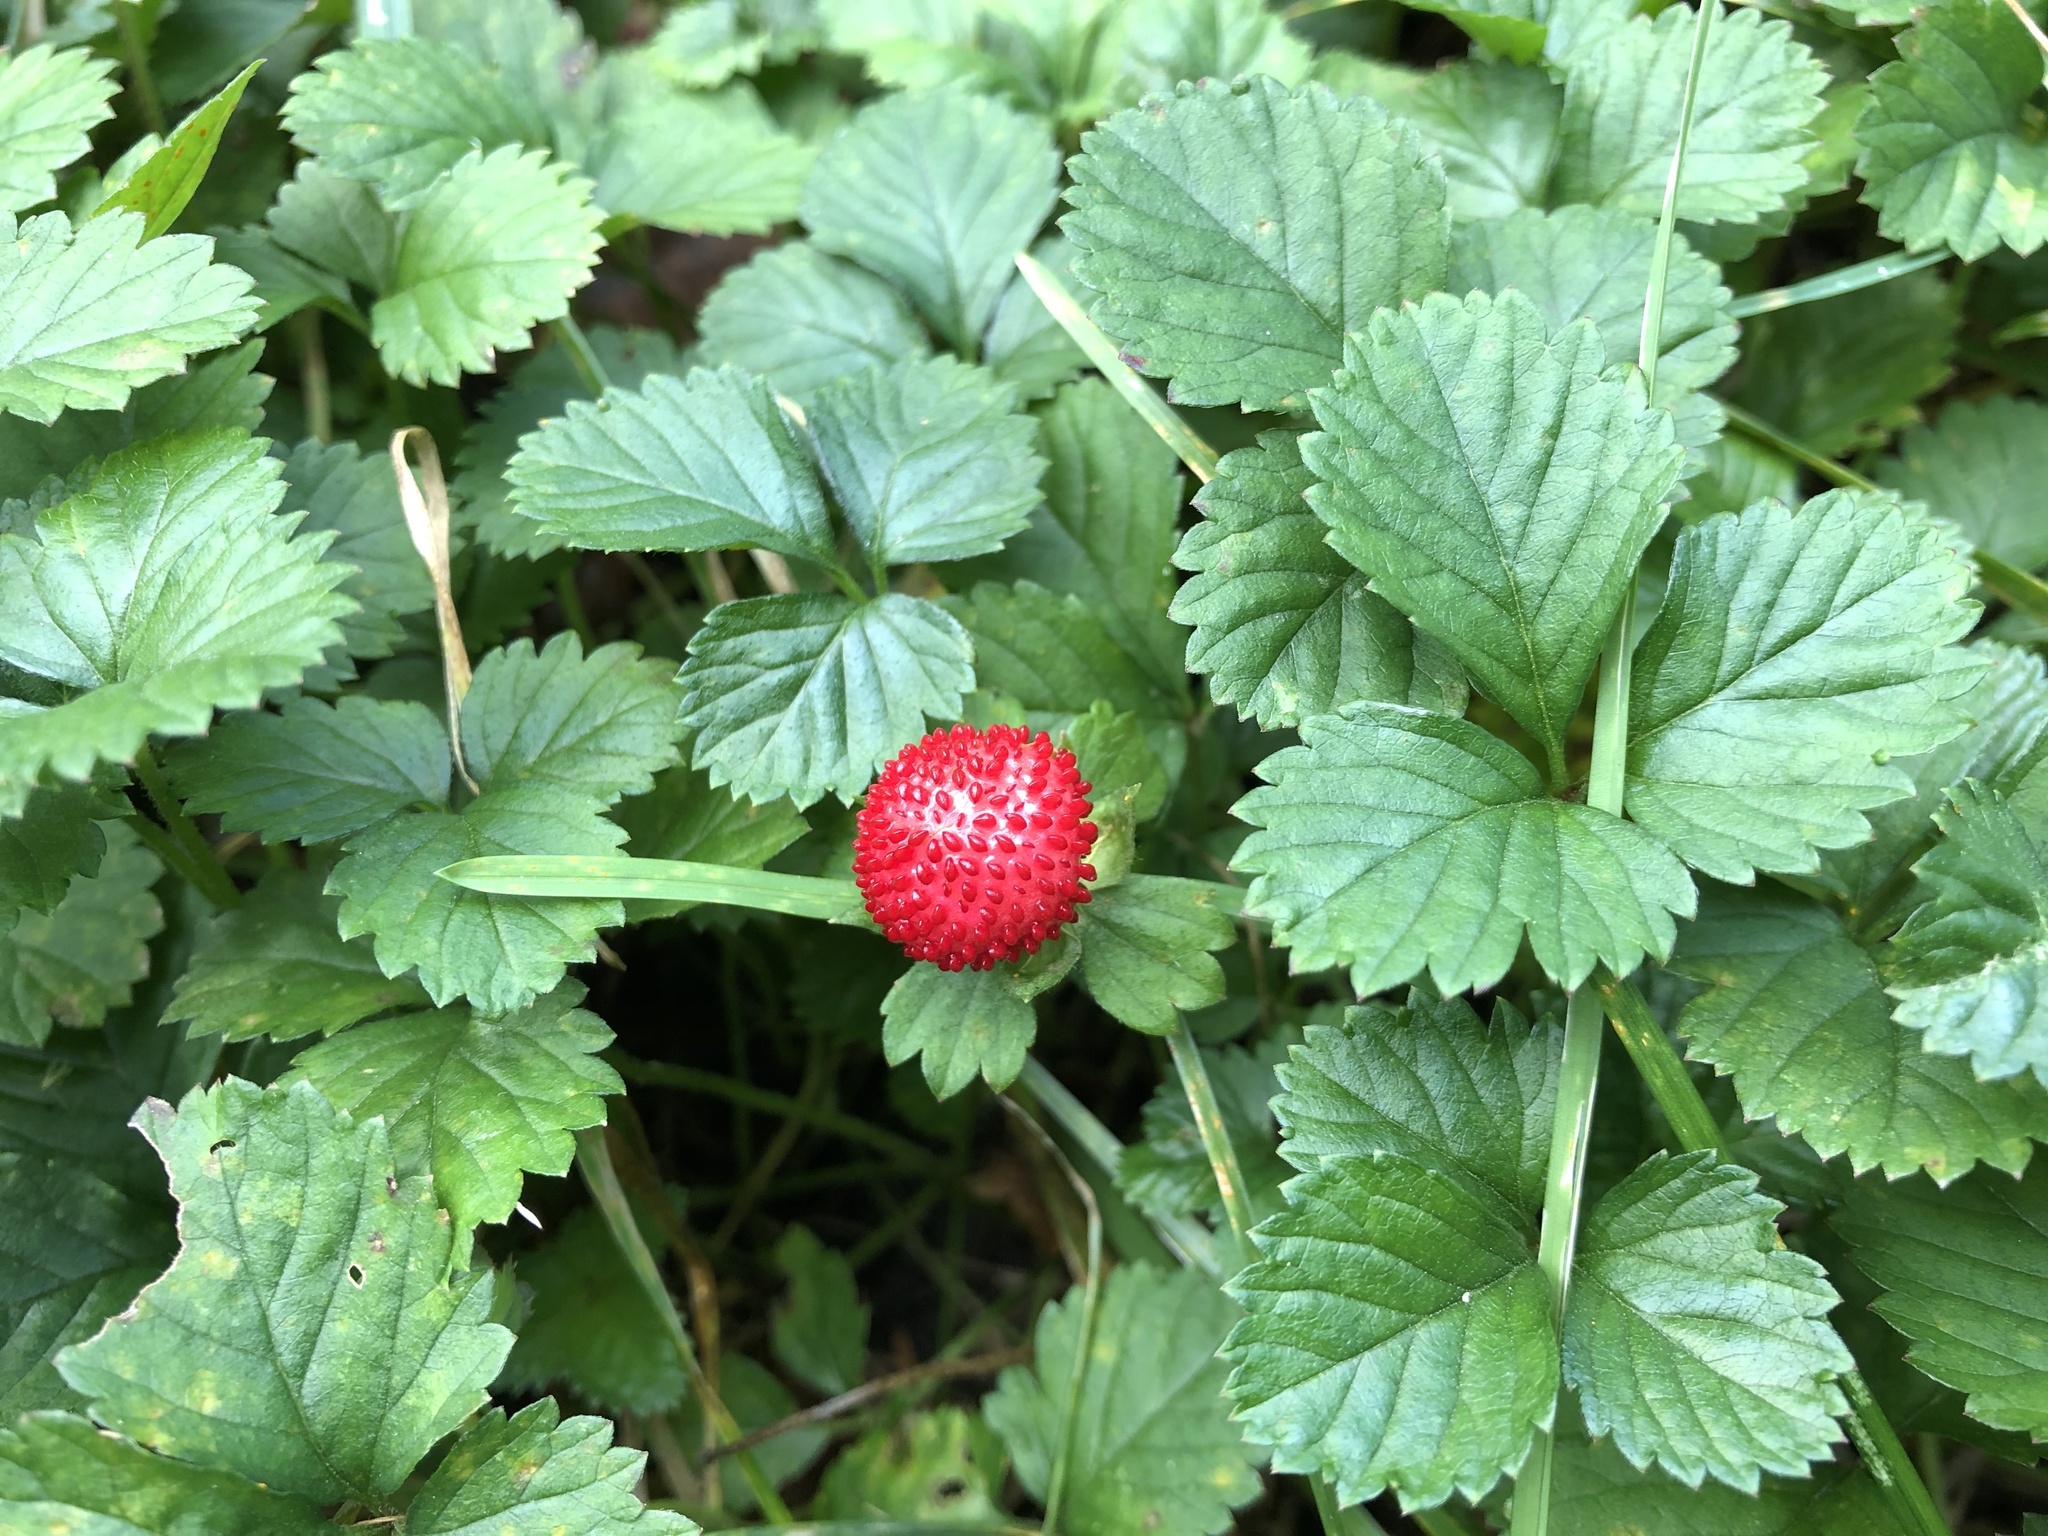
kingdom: Plantae
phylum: Tracheophyta
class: Magnoliopsida
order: Rosales
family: Rosaceae
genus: Potentilla
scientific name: Potentilla indica
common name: Yellow-flowered strawberry
